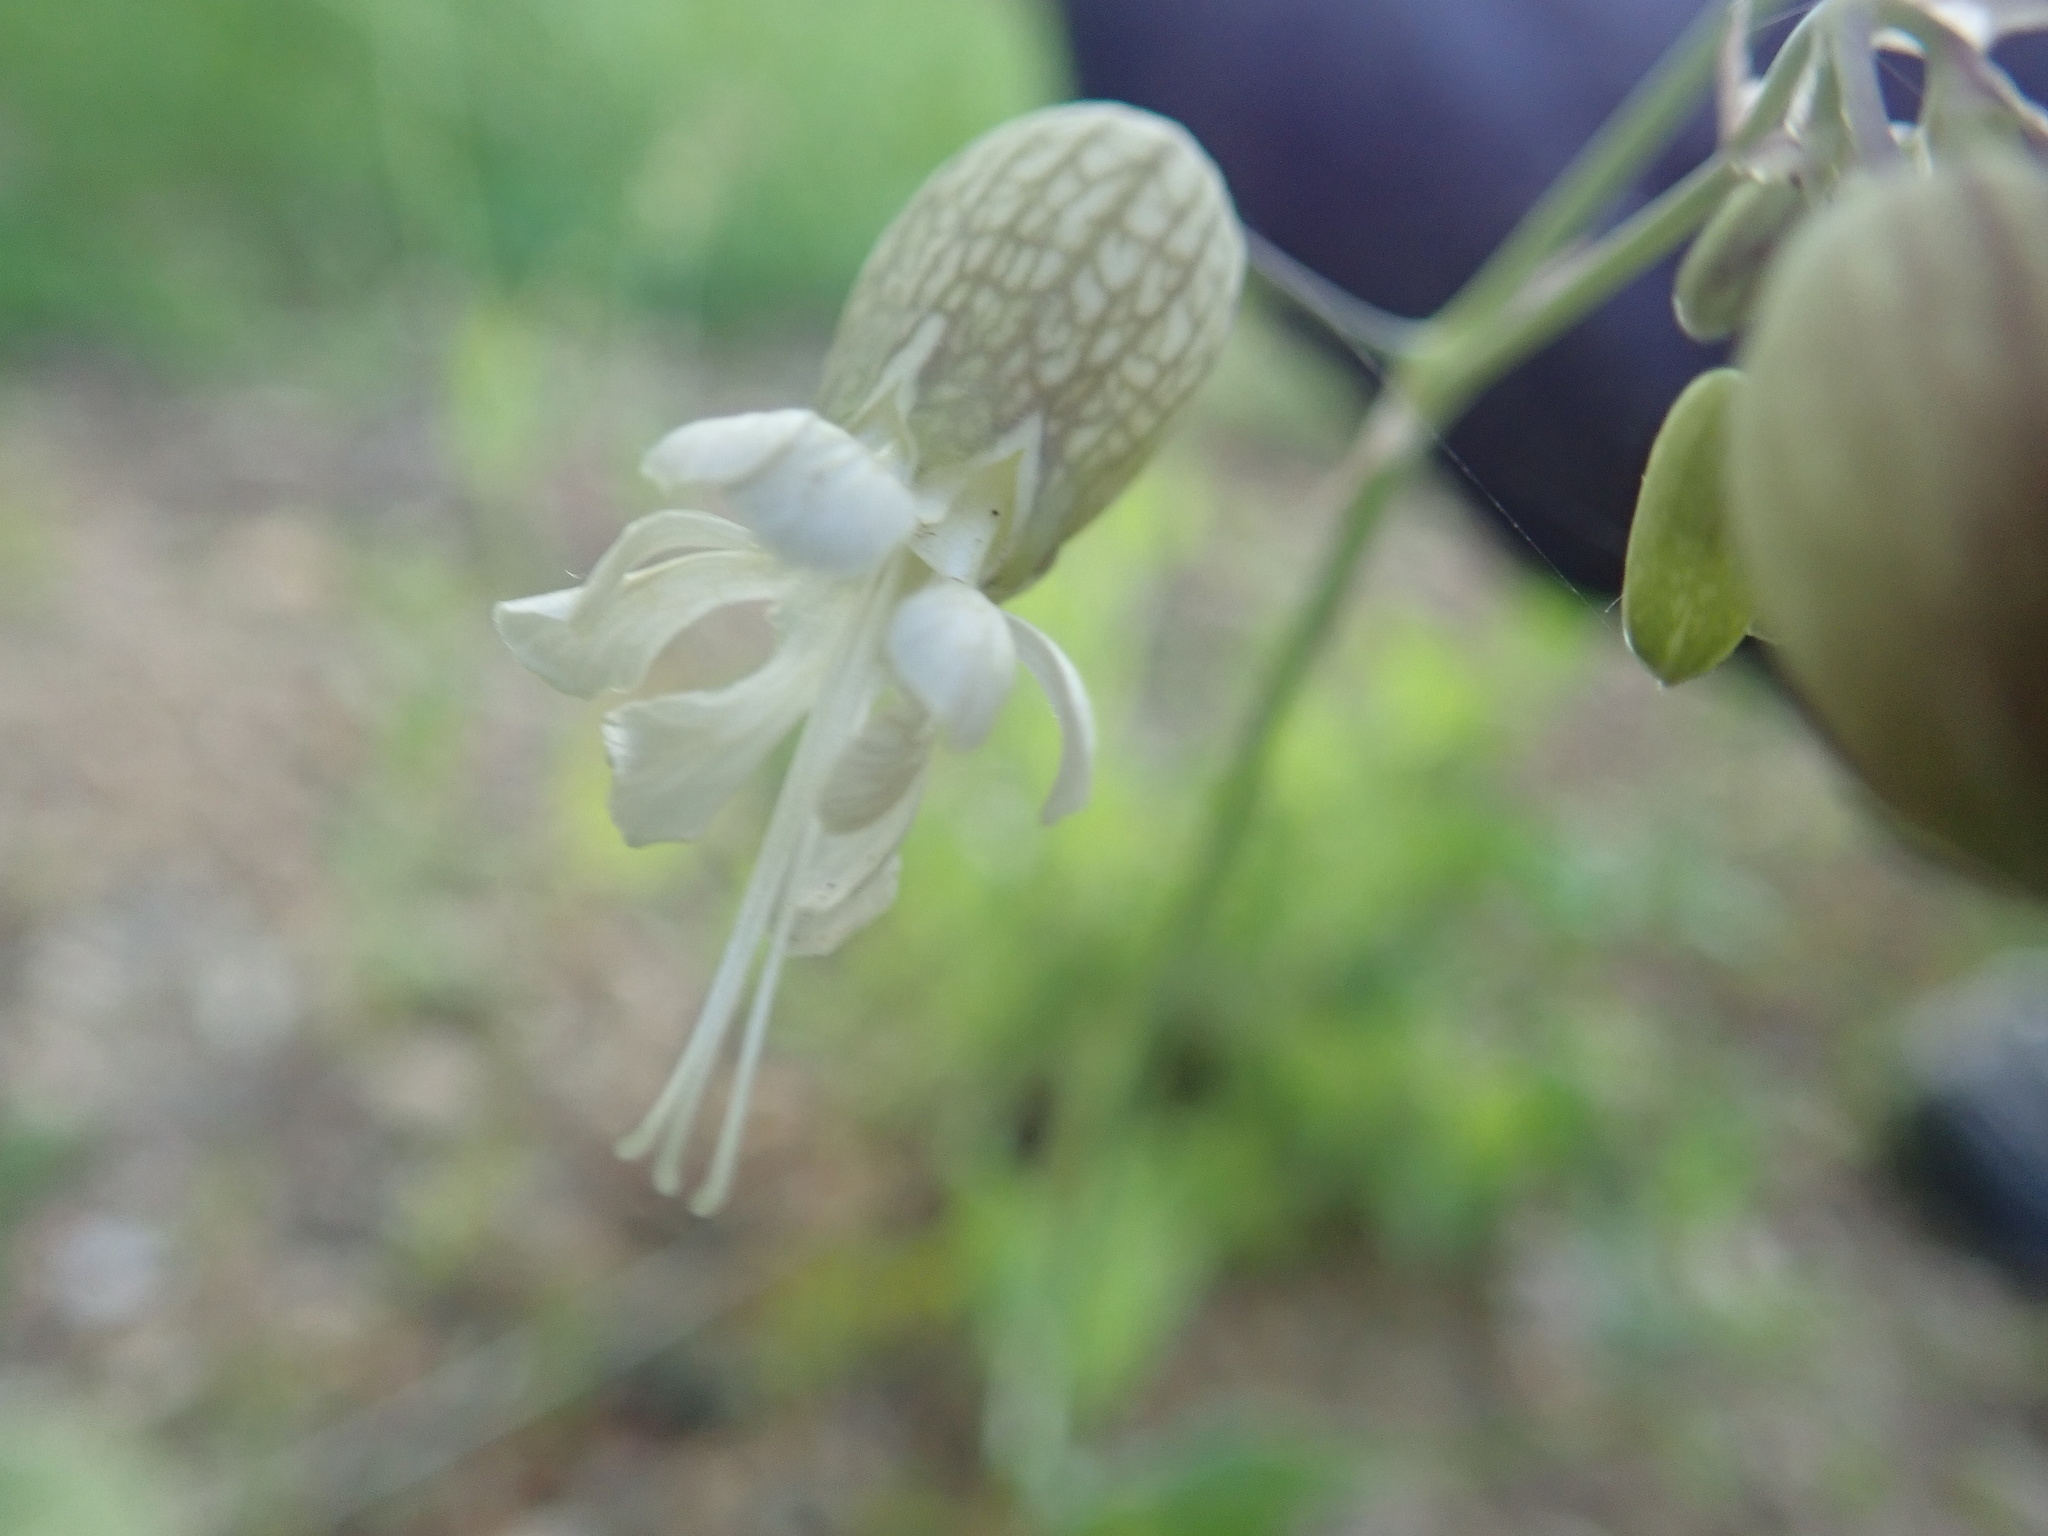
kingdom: Plantae
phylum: Tracheophyta
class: Magnoliopsida
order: Caryophyllales
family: Caryophyllaceae
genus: Silene
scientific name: Silene vulgaris
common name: Bladder campion
